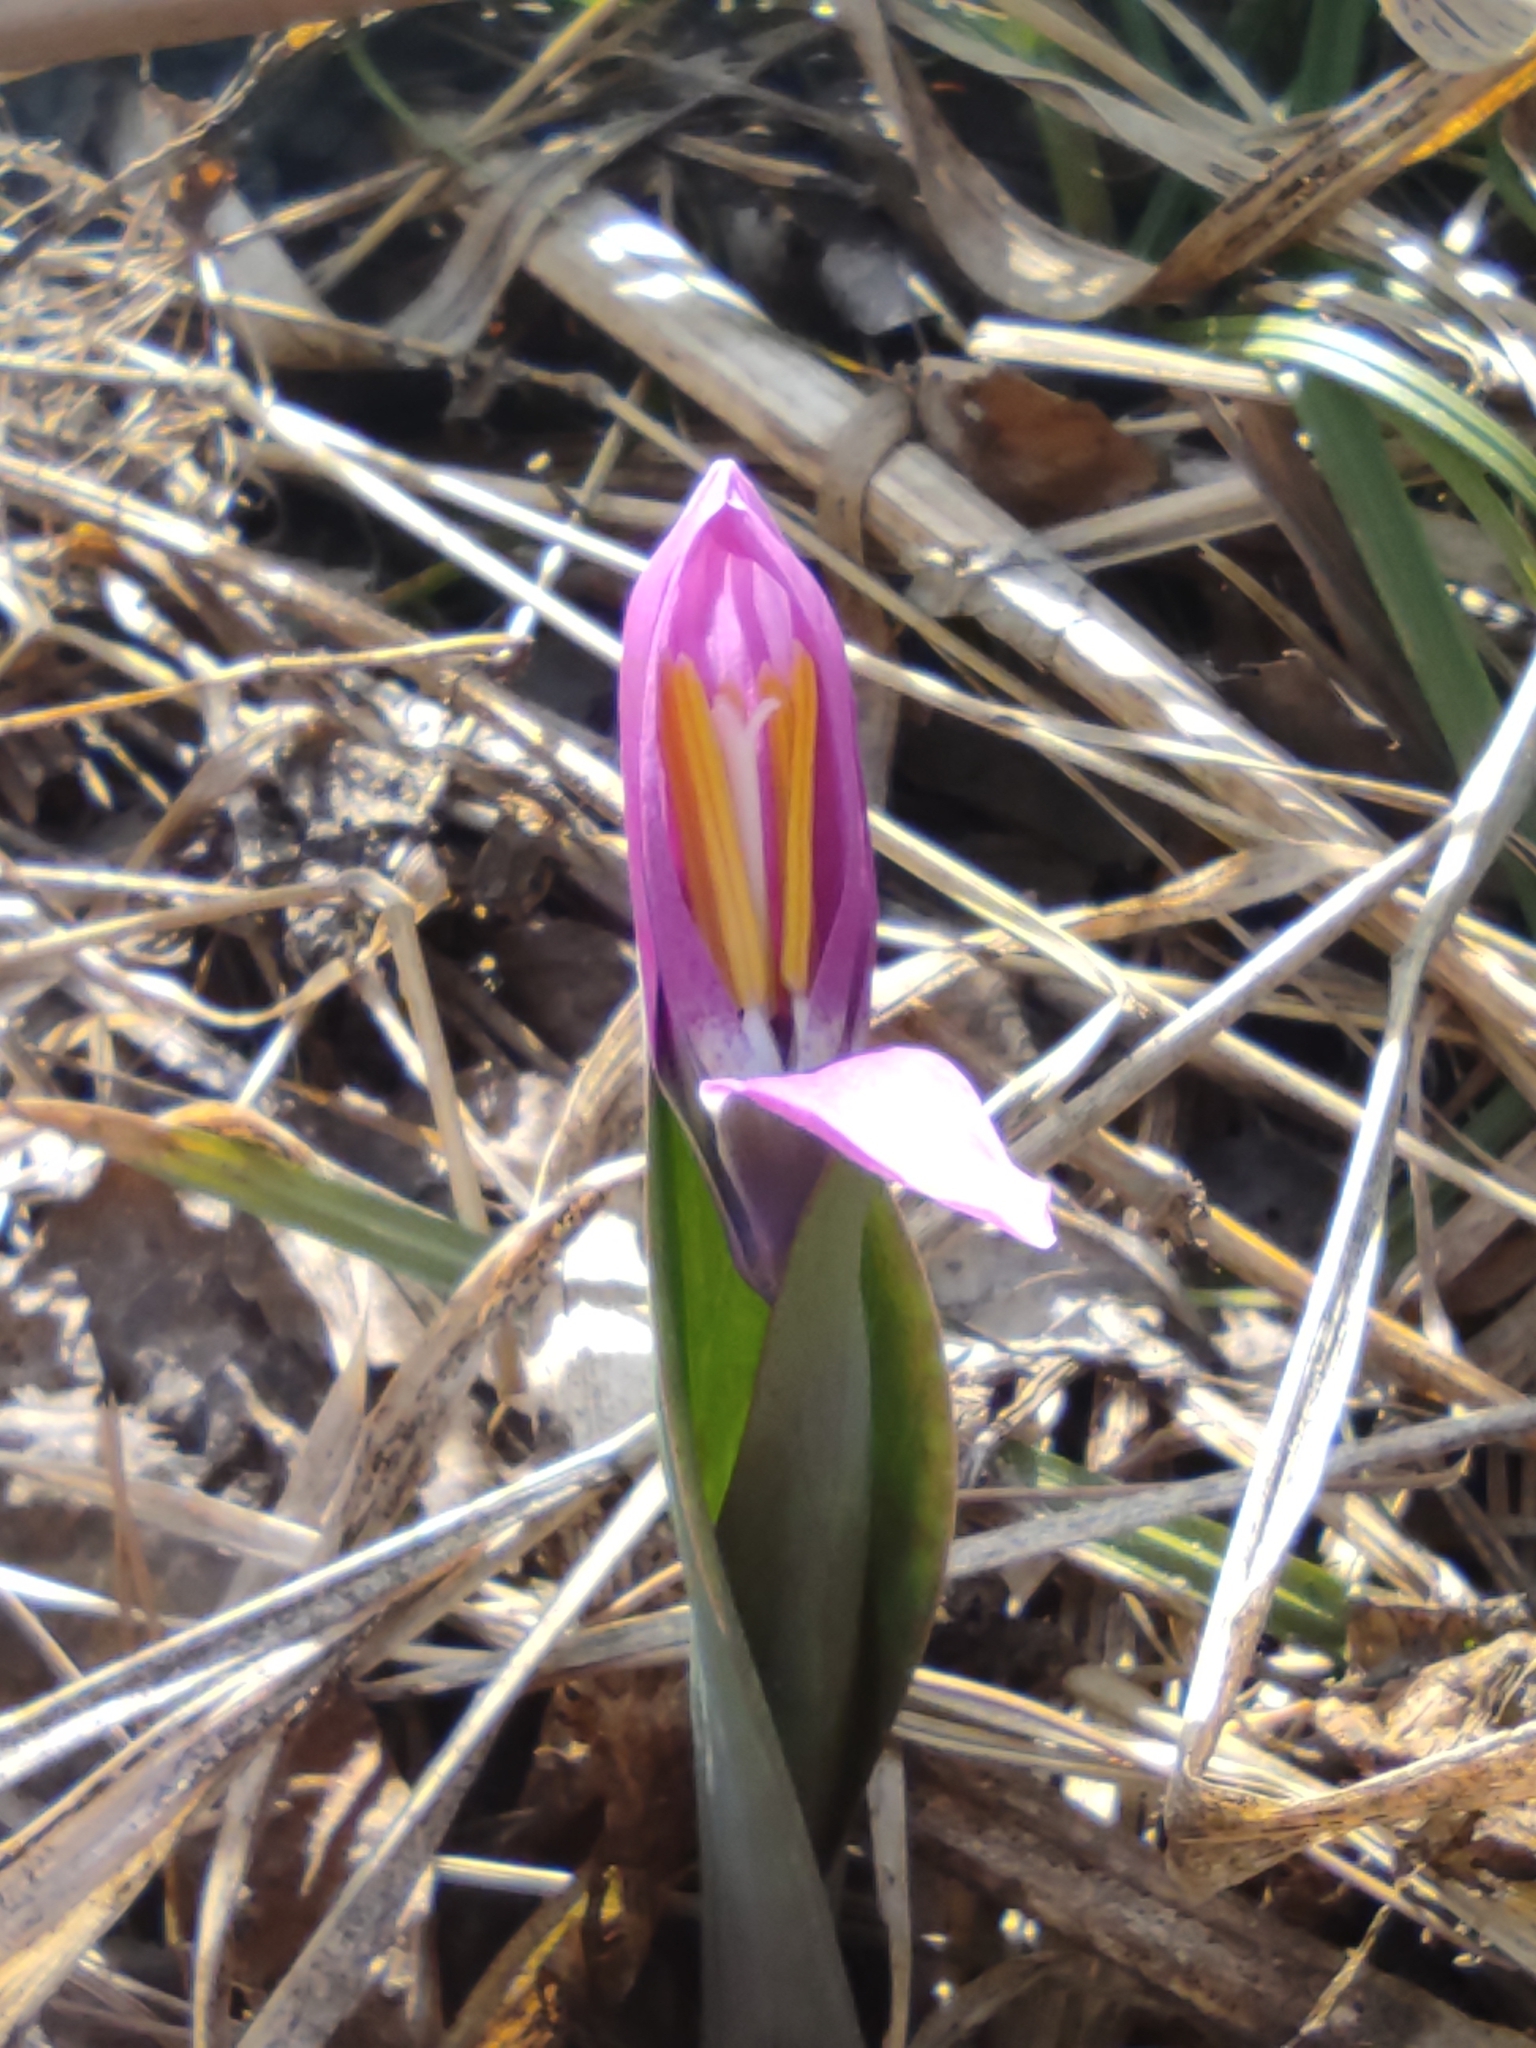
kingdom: Plantae
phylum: Tracheophyta
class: Liliopsida
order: Liliales
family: Liliaceae
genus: Erythronium
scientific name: Erythronium sibiricum
